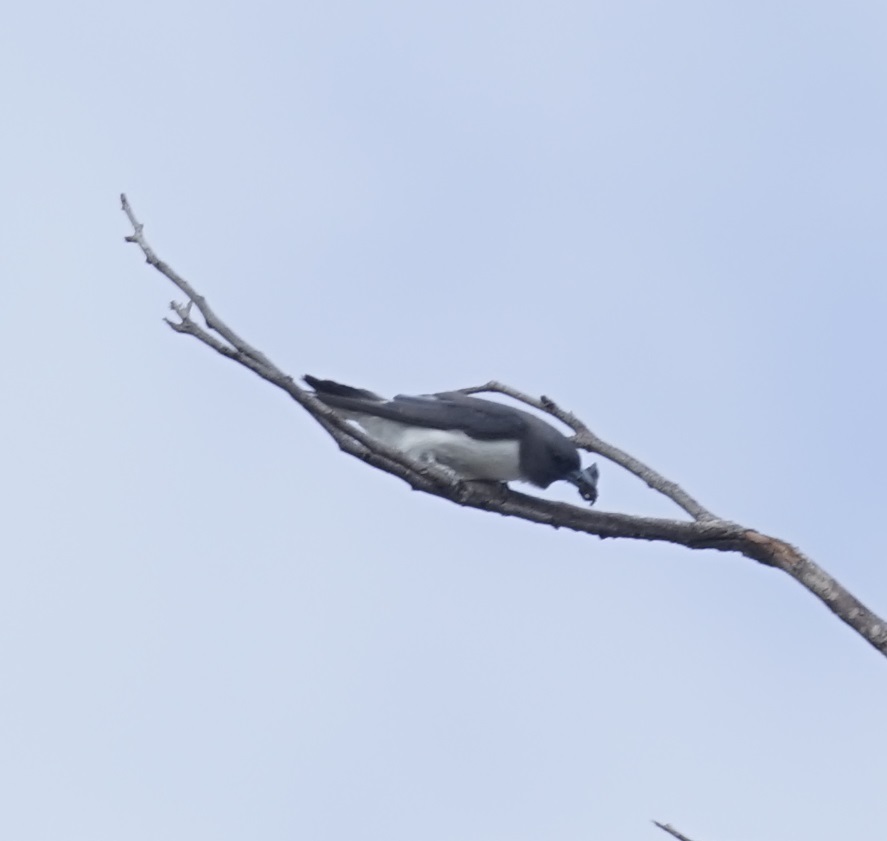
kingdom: Animalia
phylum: Chordata
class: Aves
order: Passeriformes
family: Artamidae
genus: Artamus
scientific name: Artamus leucoryn
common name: White-breasted woodswallow
